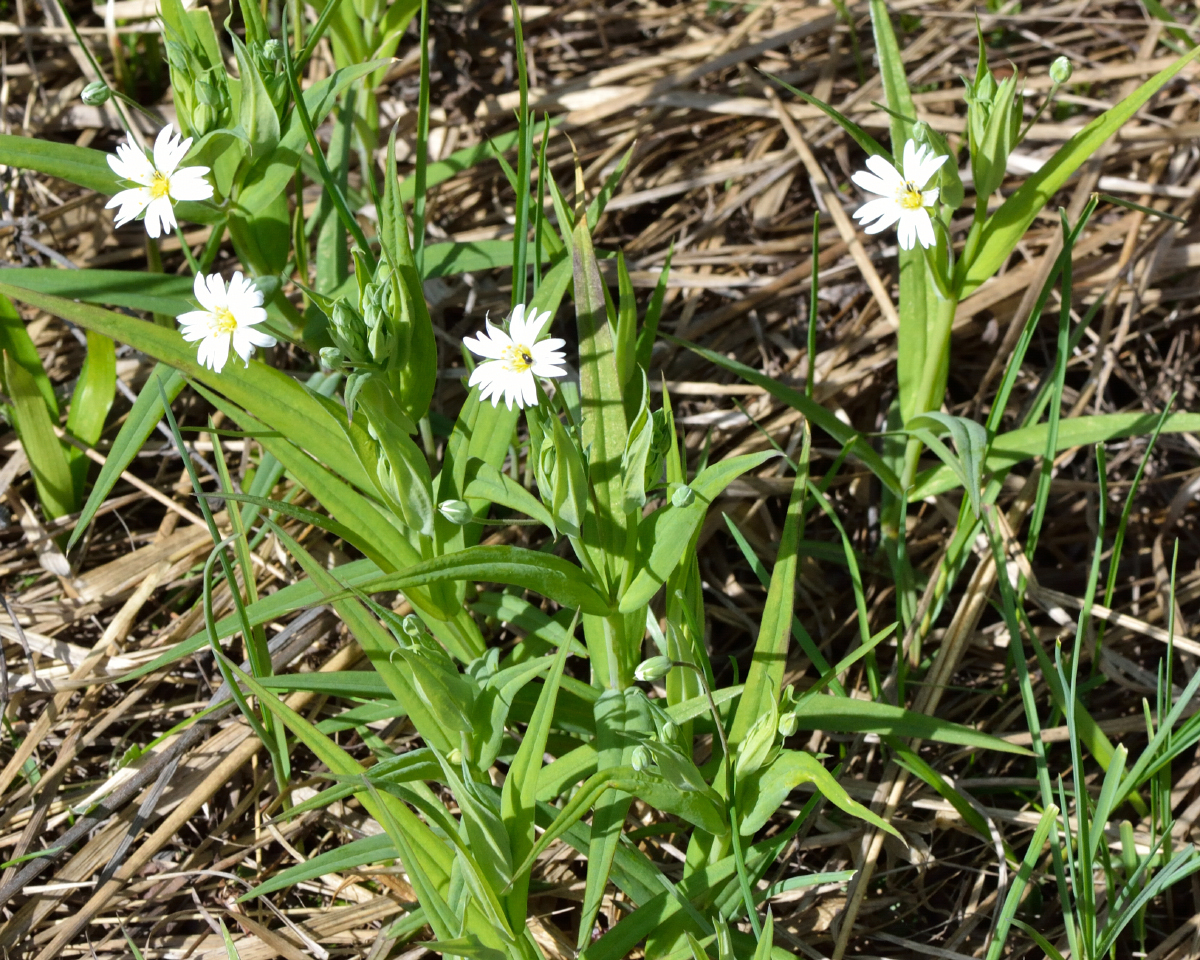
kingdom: Plantae
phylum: Tracheophyta
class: Magnoliopsida
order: Caryophyllales
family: Caryophyllaceae
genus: Rabelera
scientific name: Rabelera holostea
